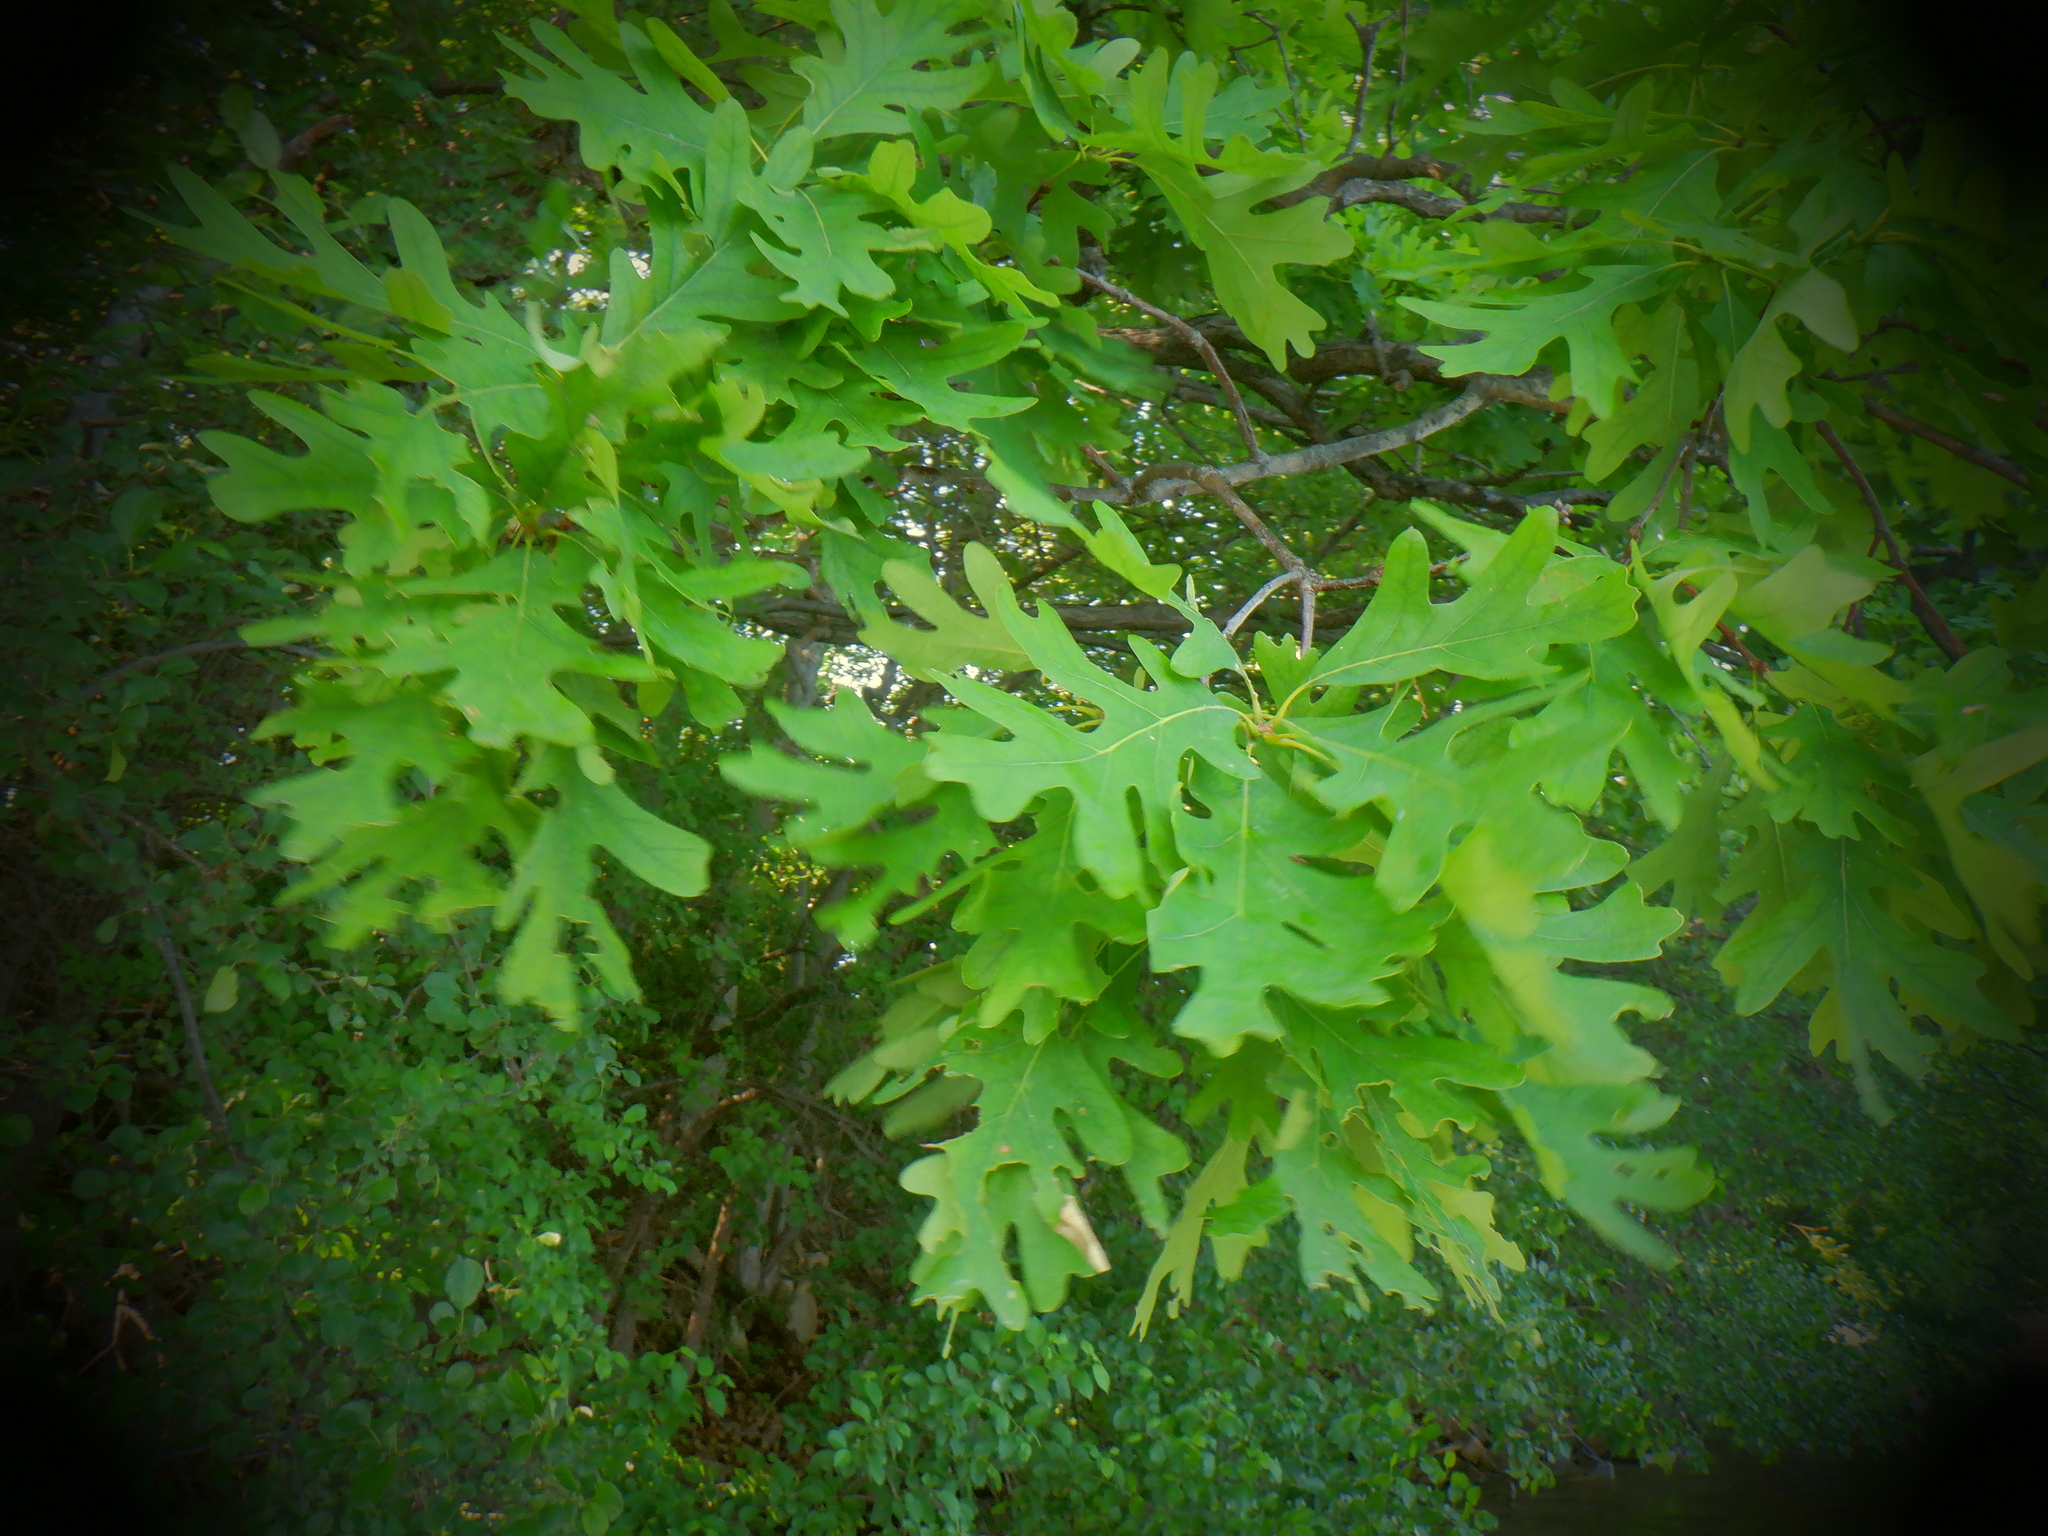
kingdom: Plantae
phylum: Tracheophyta
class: Magnoliopsida
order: Fagales
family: Fagaceae
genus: Quercus
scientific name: Quercus alba
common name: White oak
